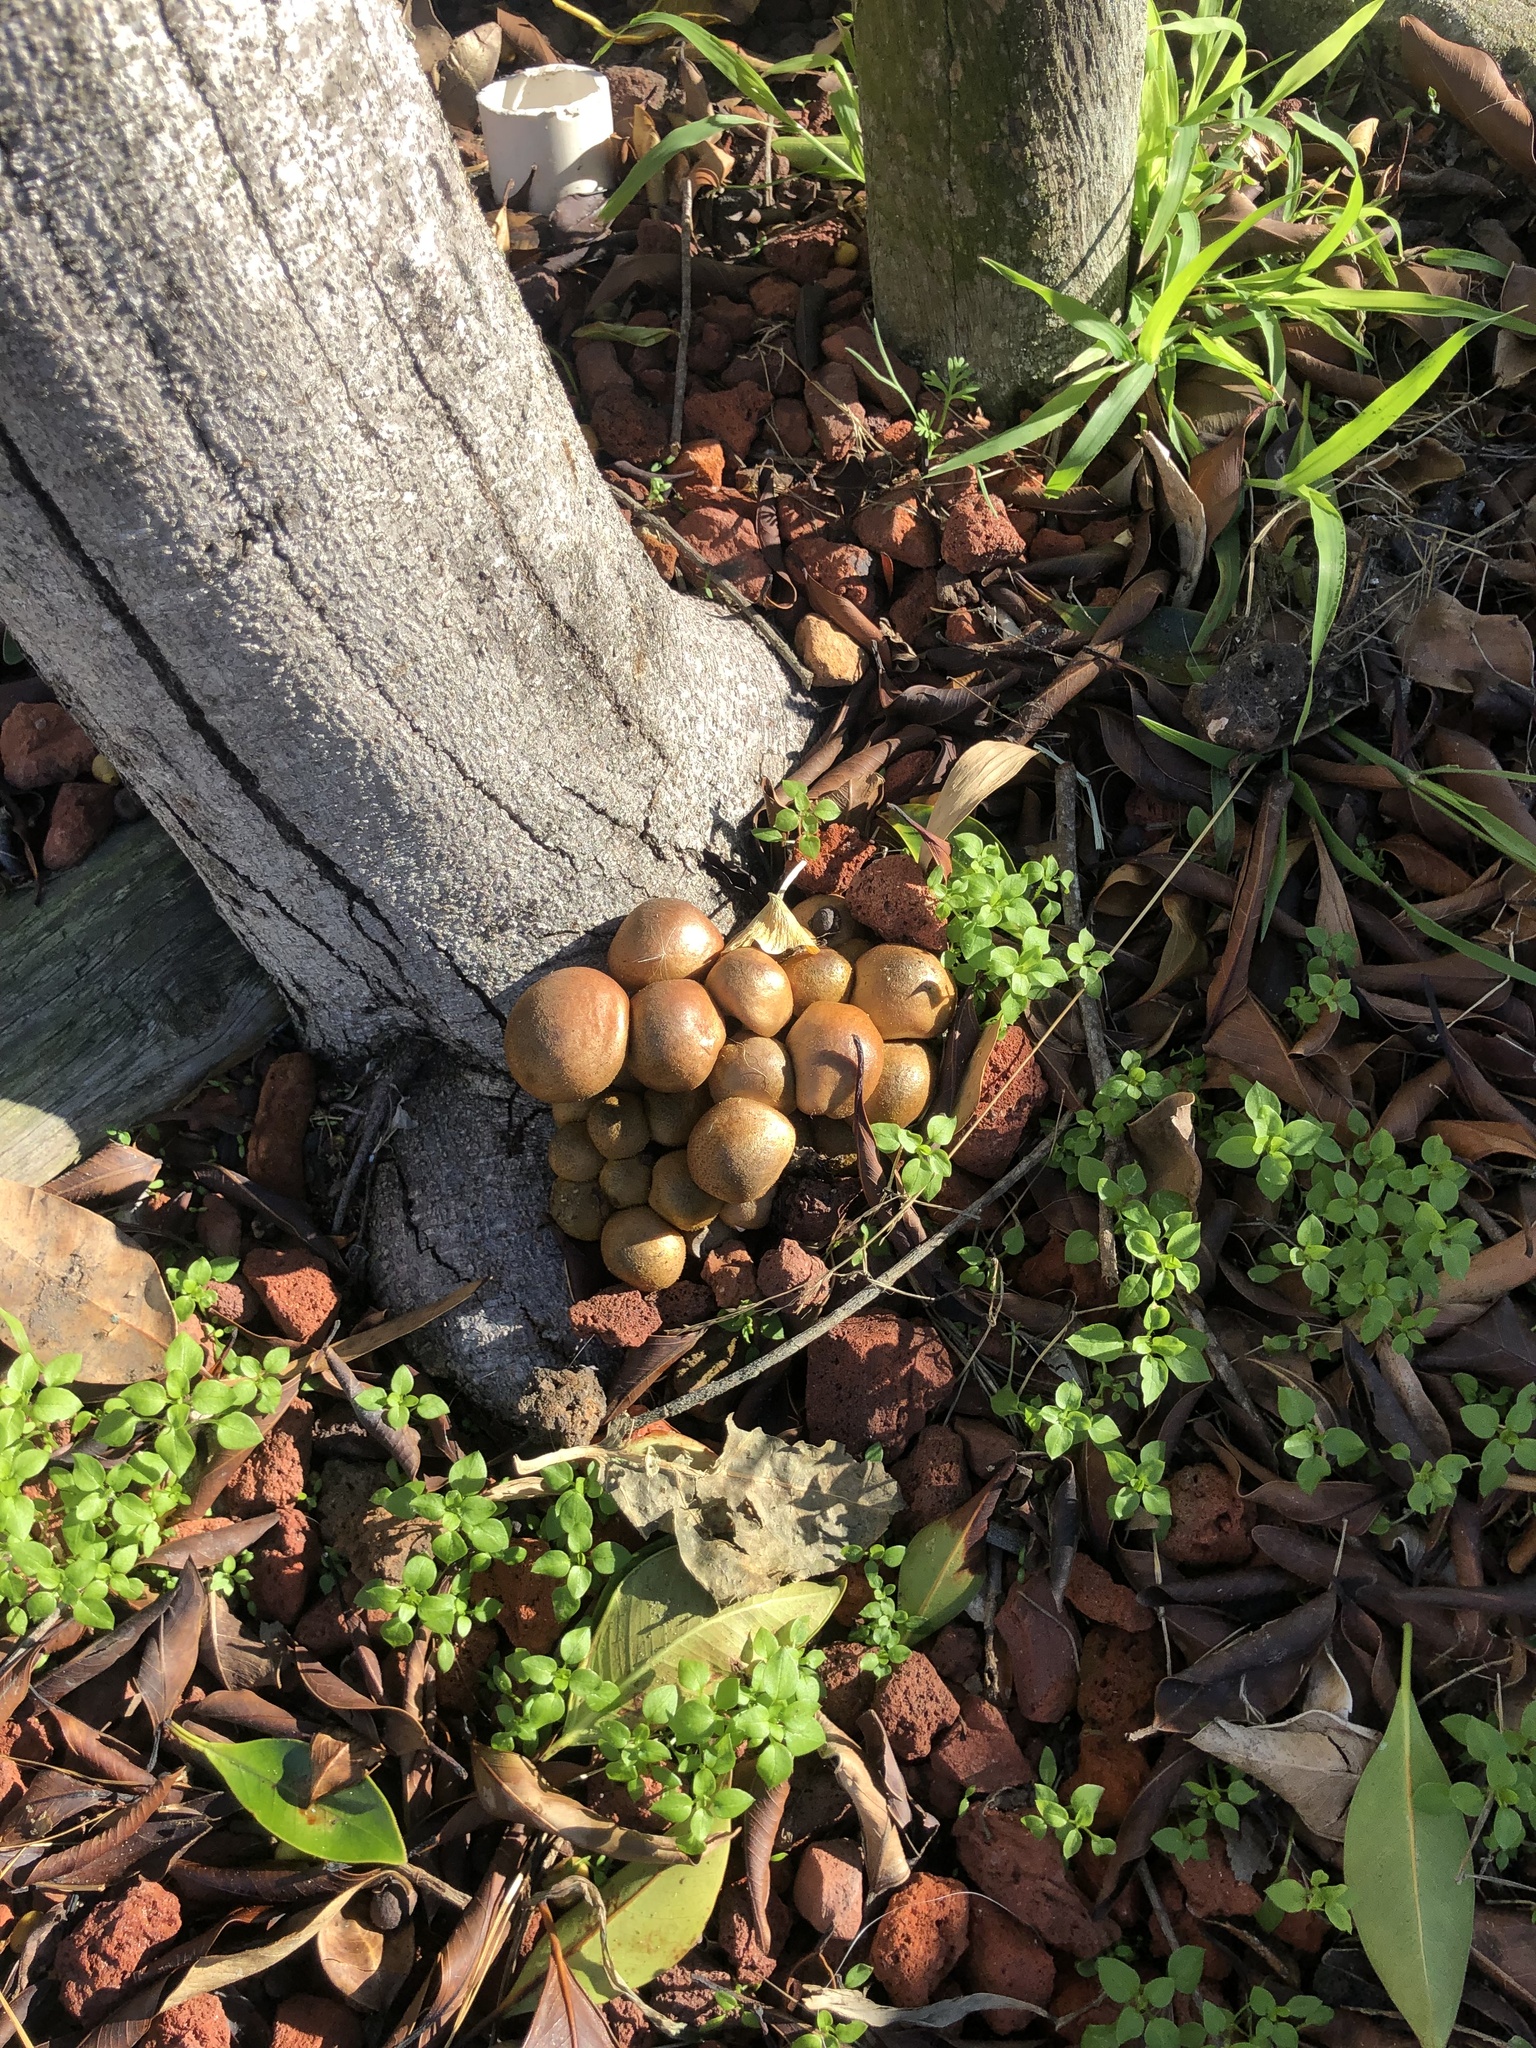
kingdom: Fungi
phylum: Basidiomycota
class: Agaricomycetes
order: Agaricales
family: Hymenogastraceae
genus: Gymnopilus
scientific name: Gymnopilus ventricosus
